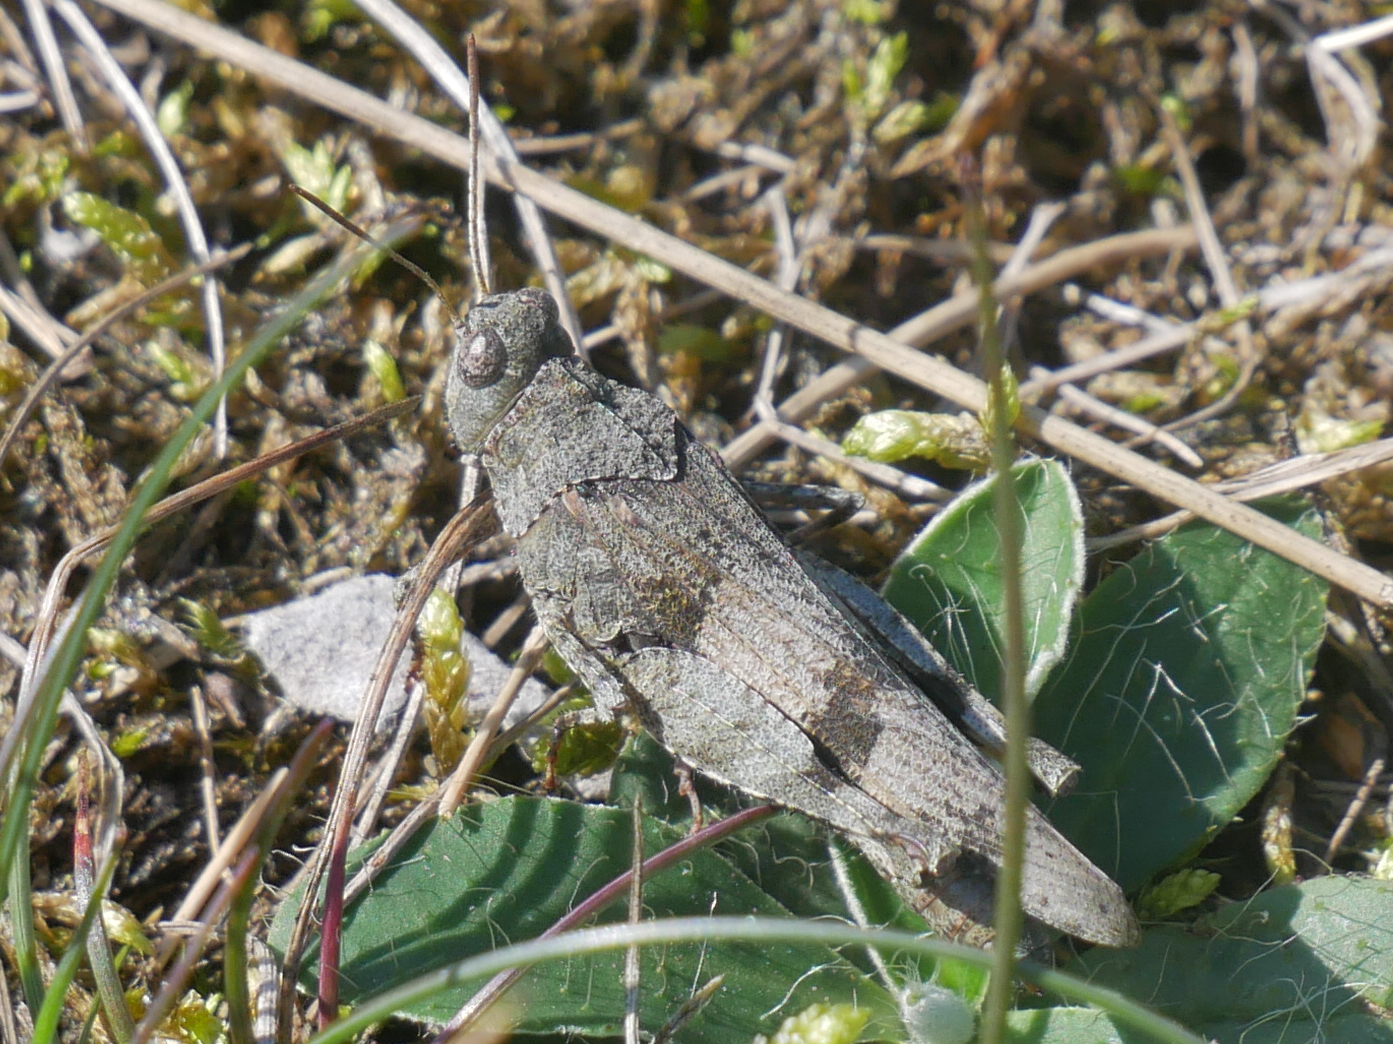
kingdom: Animalia
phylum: Arthropoda
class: Insecta
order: Orthoptera
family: Acrididae
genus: Oedipoda
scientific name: Oedipoda caerulescens
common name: Blue-winged grasshopper
